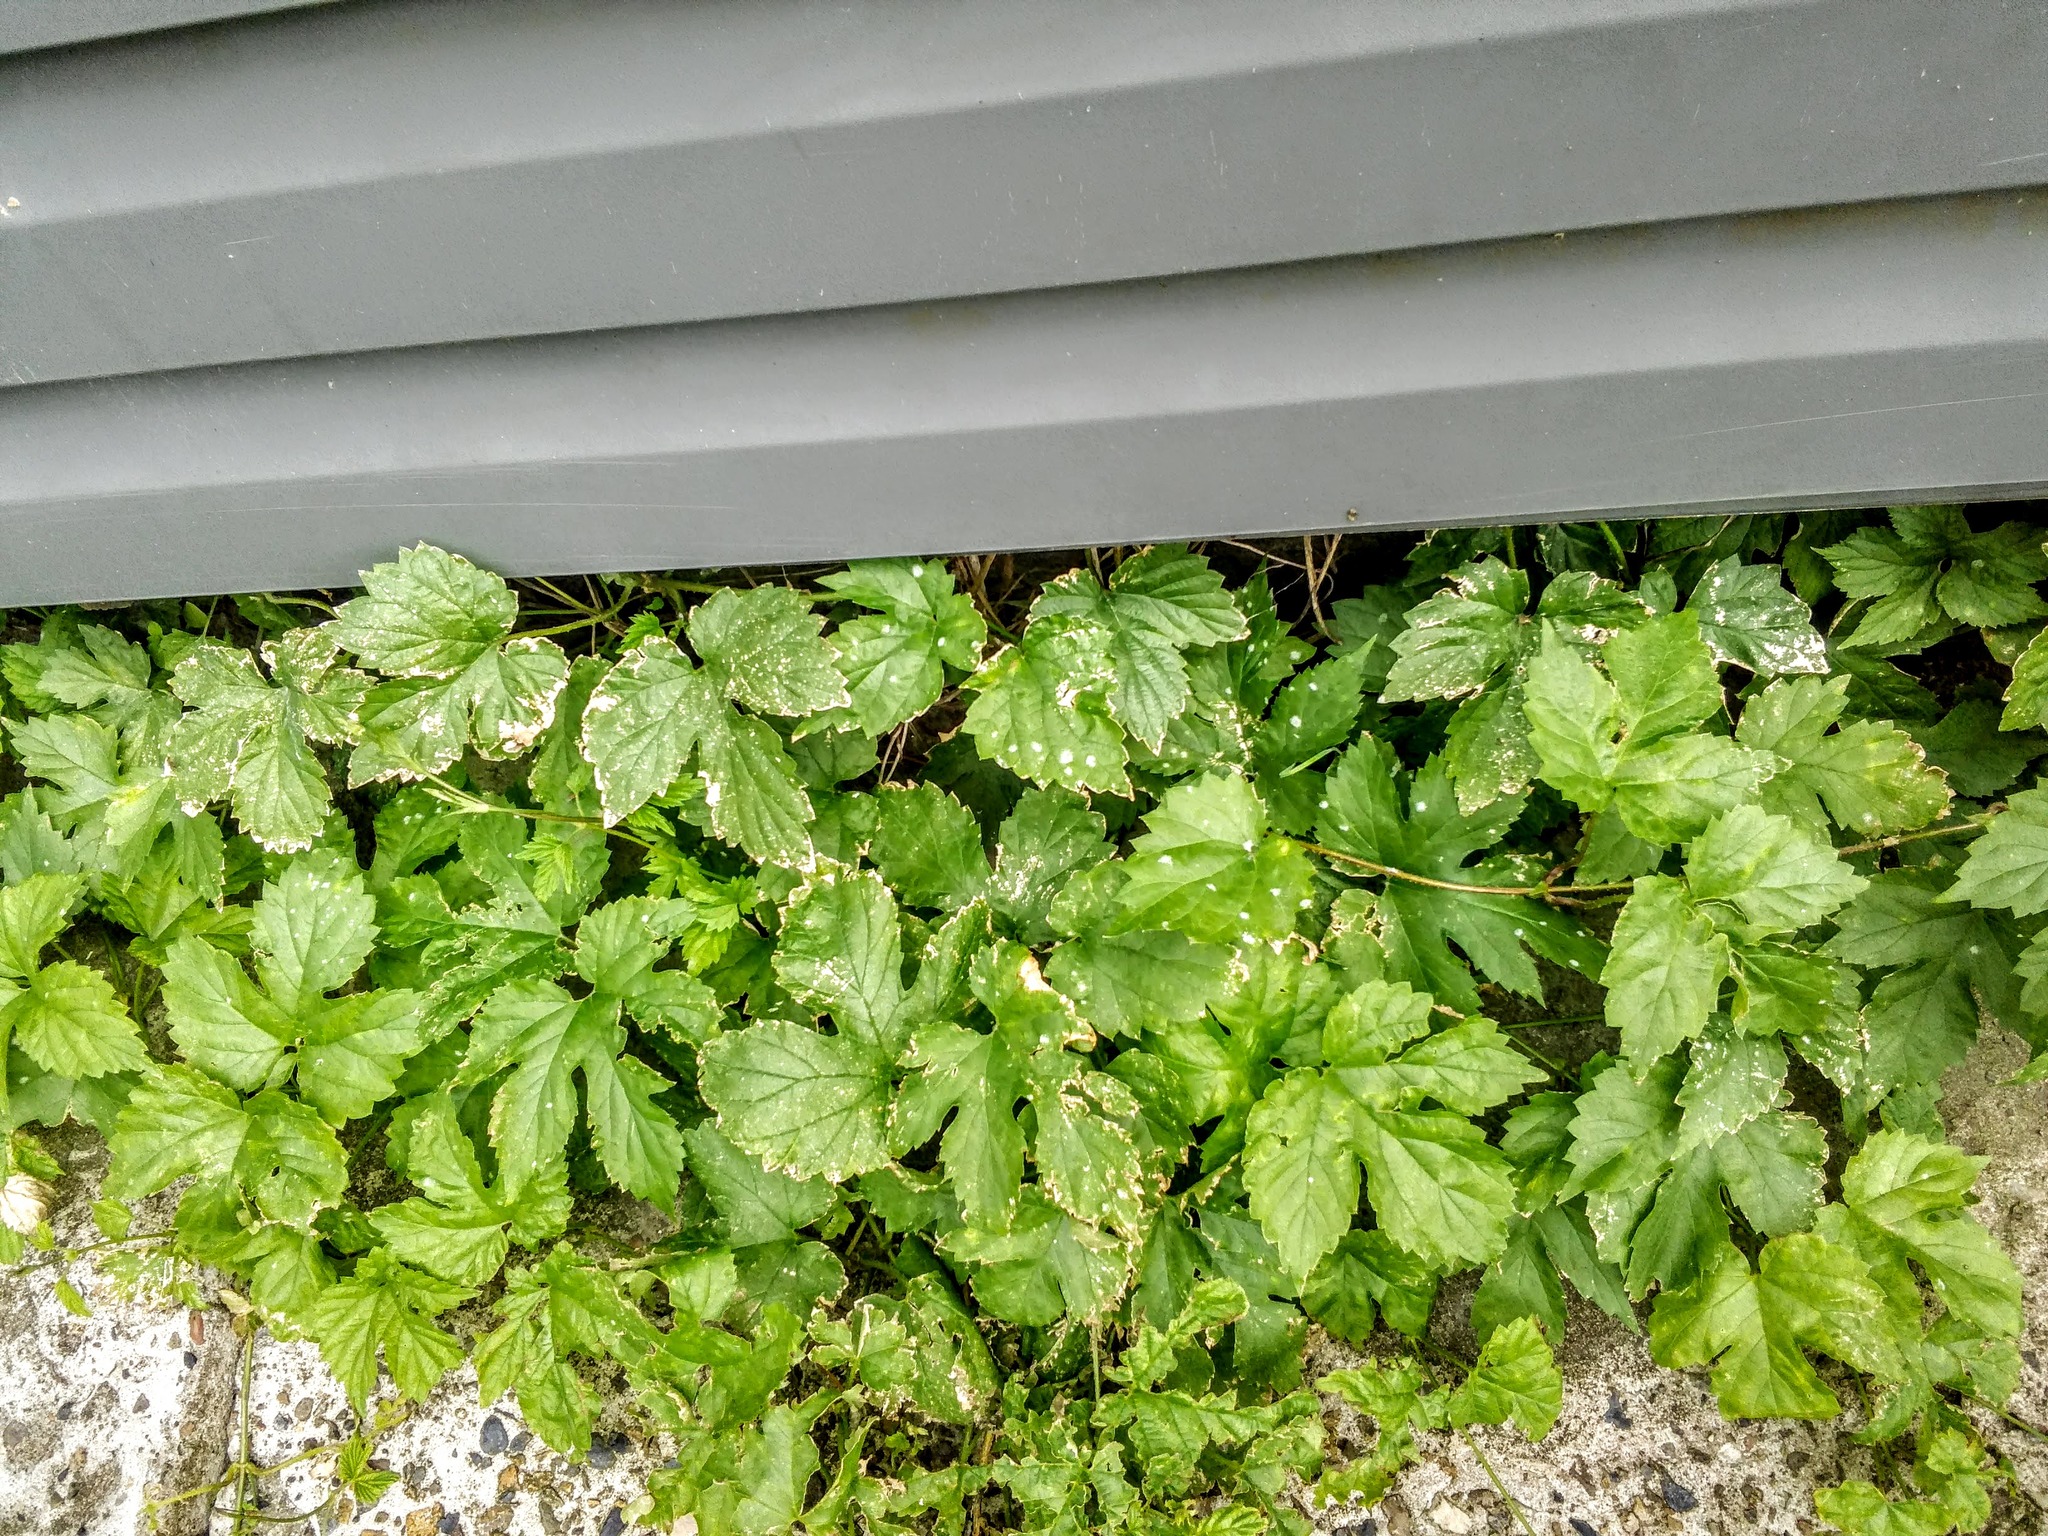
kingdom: Plantae
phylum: Tracheophyta
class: Magnoliopsida
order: Rosales
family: Cannabaceae
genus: Humulus
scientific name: Humulus lupulus
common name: Hop
